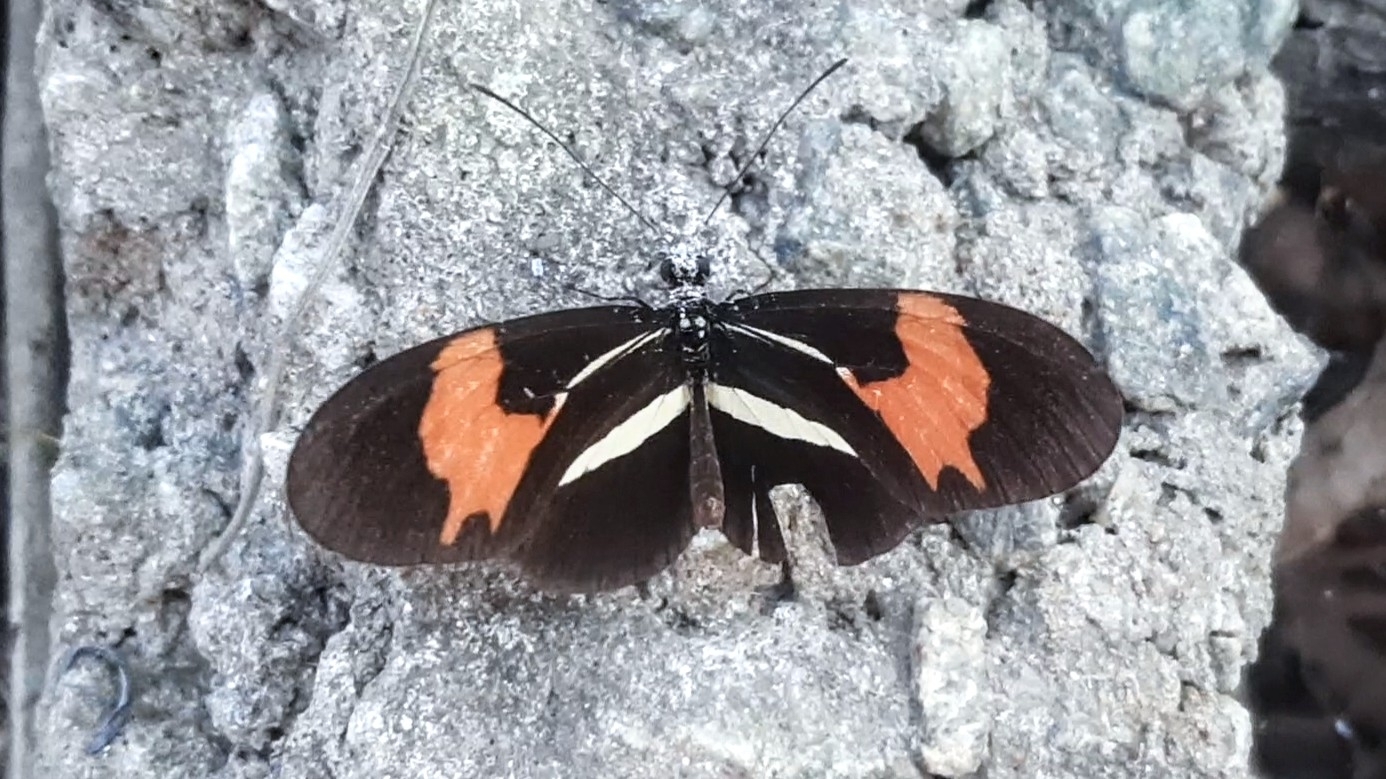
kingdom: Animalia
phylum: Arthropoda
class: Insecta
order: Lepidoptera
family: Nymphalidae
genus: Heliconius
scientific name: Heliconius erato
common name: Common patch longwing
